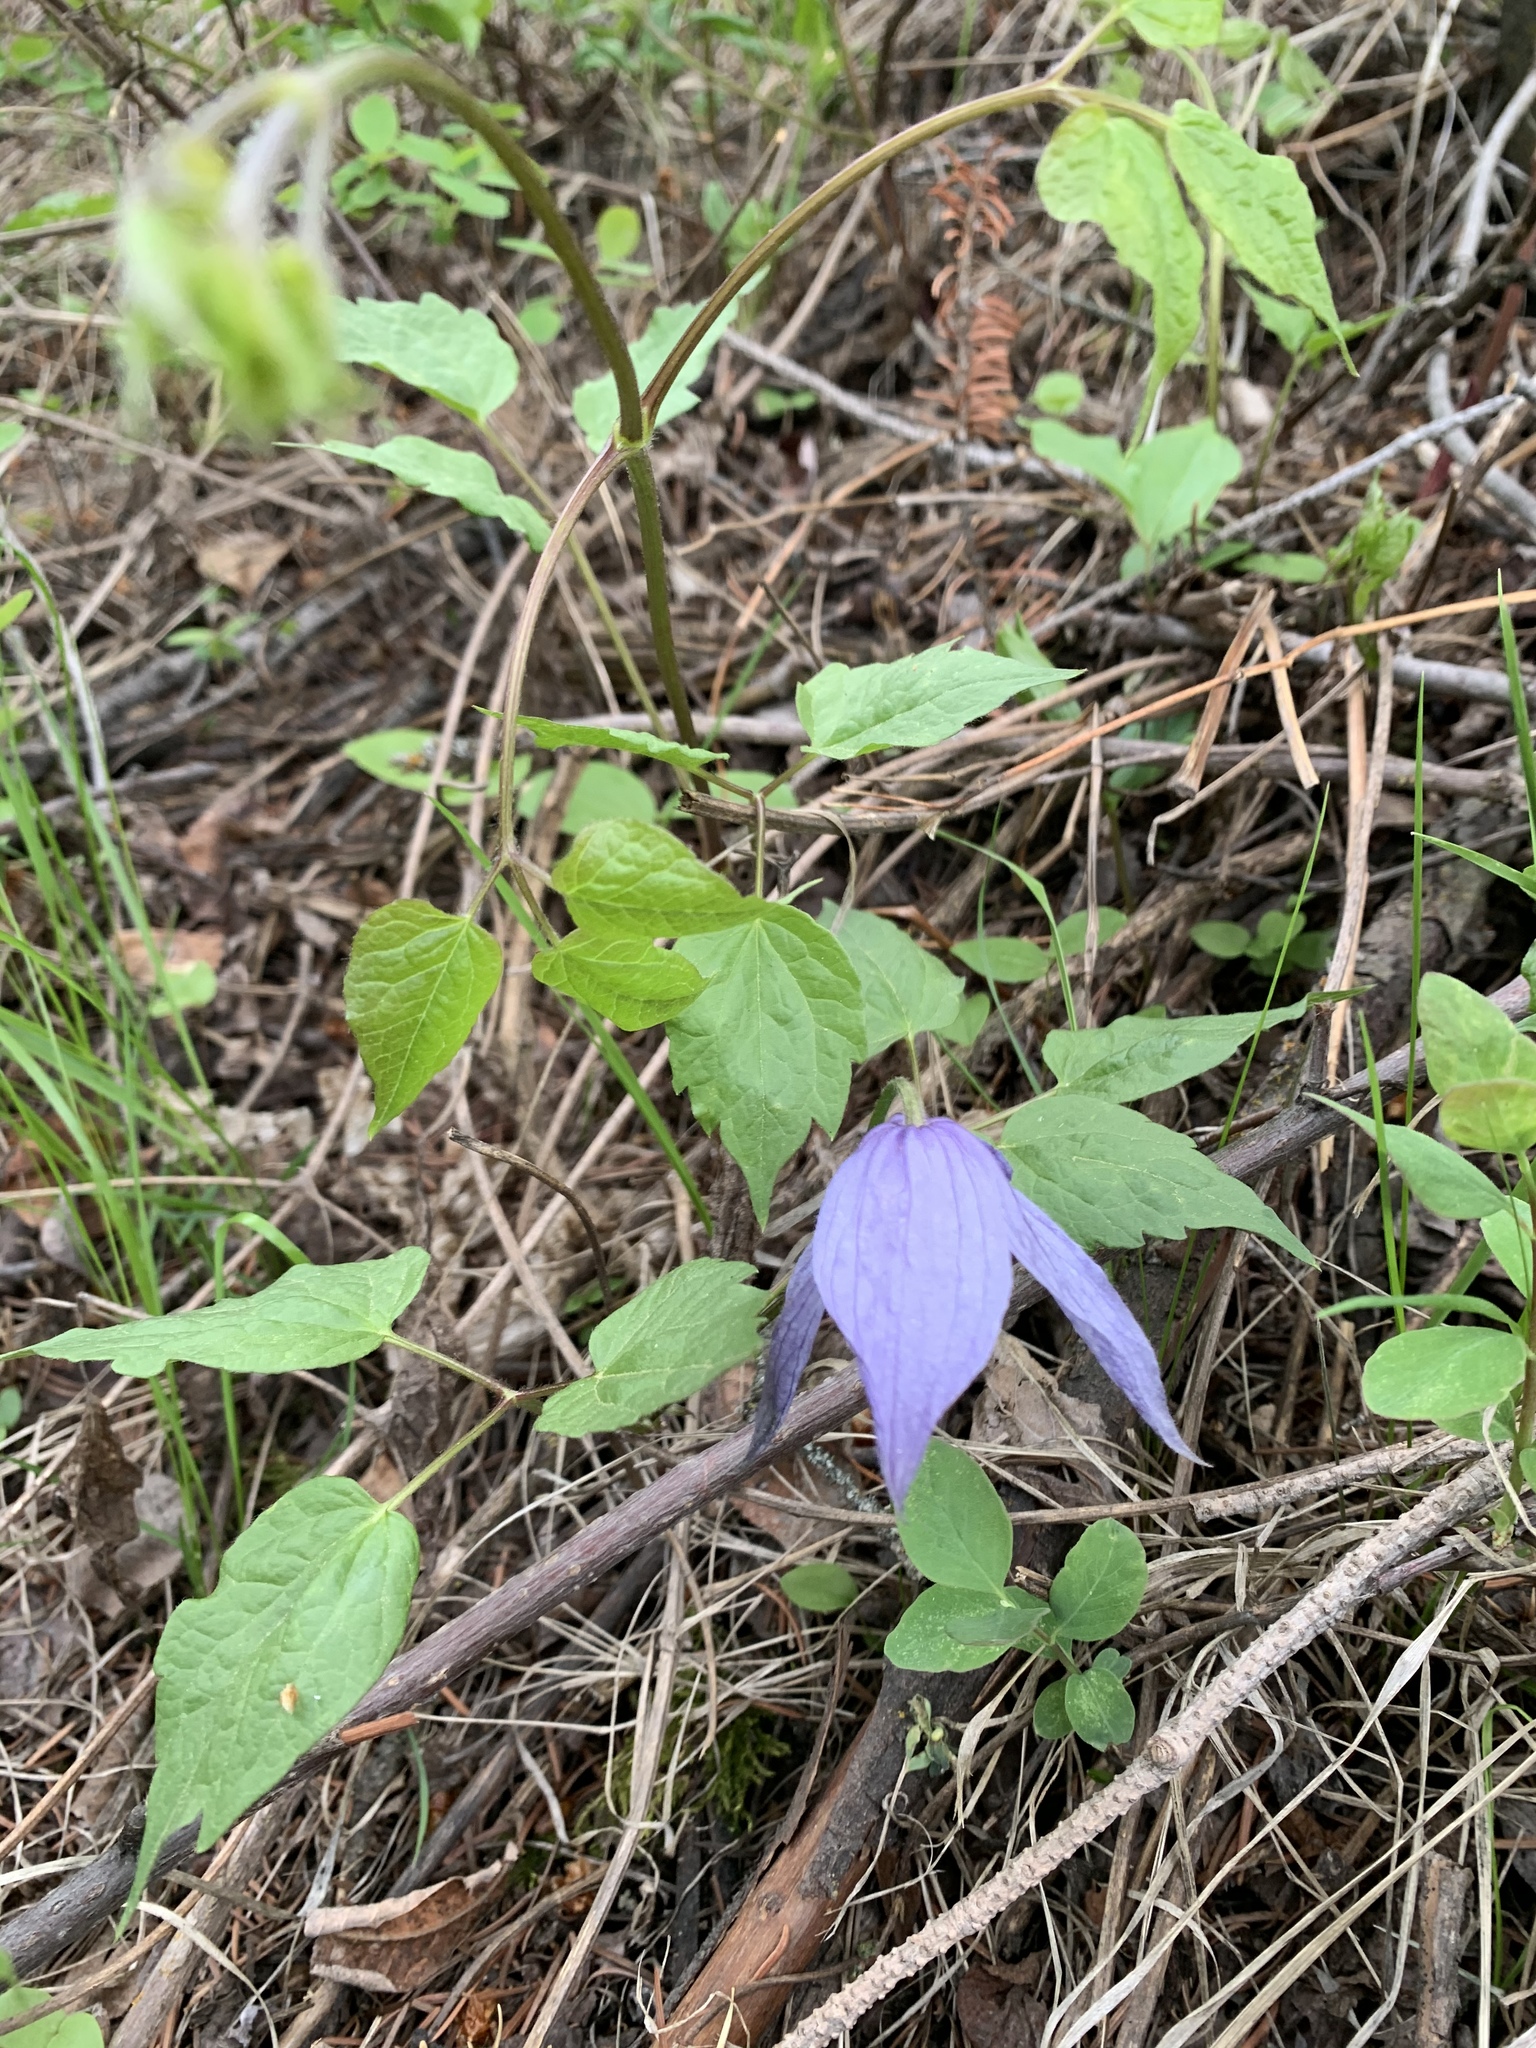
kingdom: Plantae
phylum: Tracheophyta
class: Magnoliopsida
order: Ranunculales
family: Ranunculaceae
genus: Clematis
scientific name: Clematis occidentalis
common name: Purple clematis
